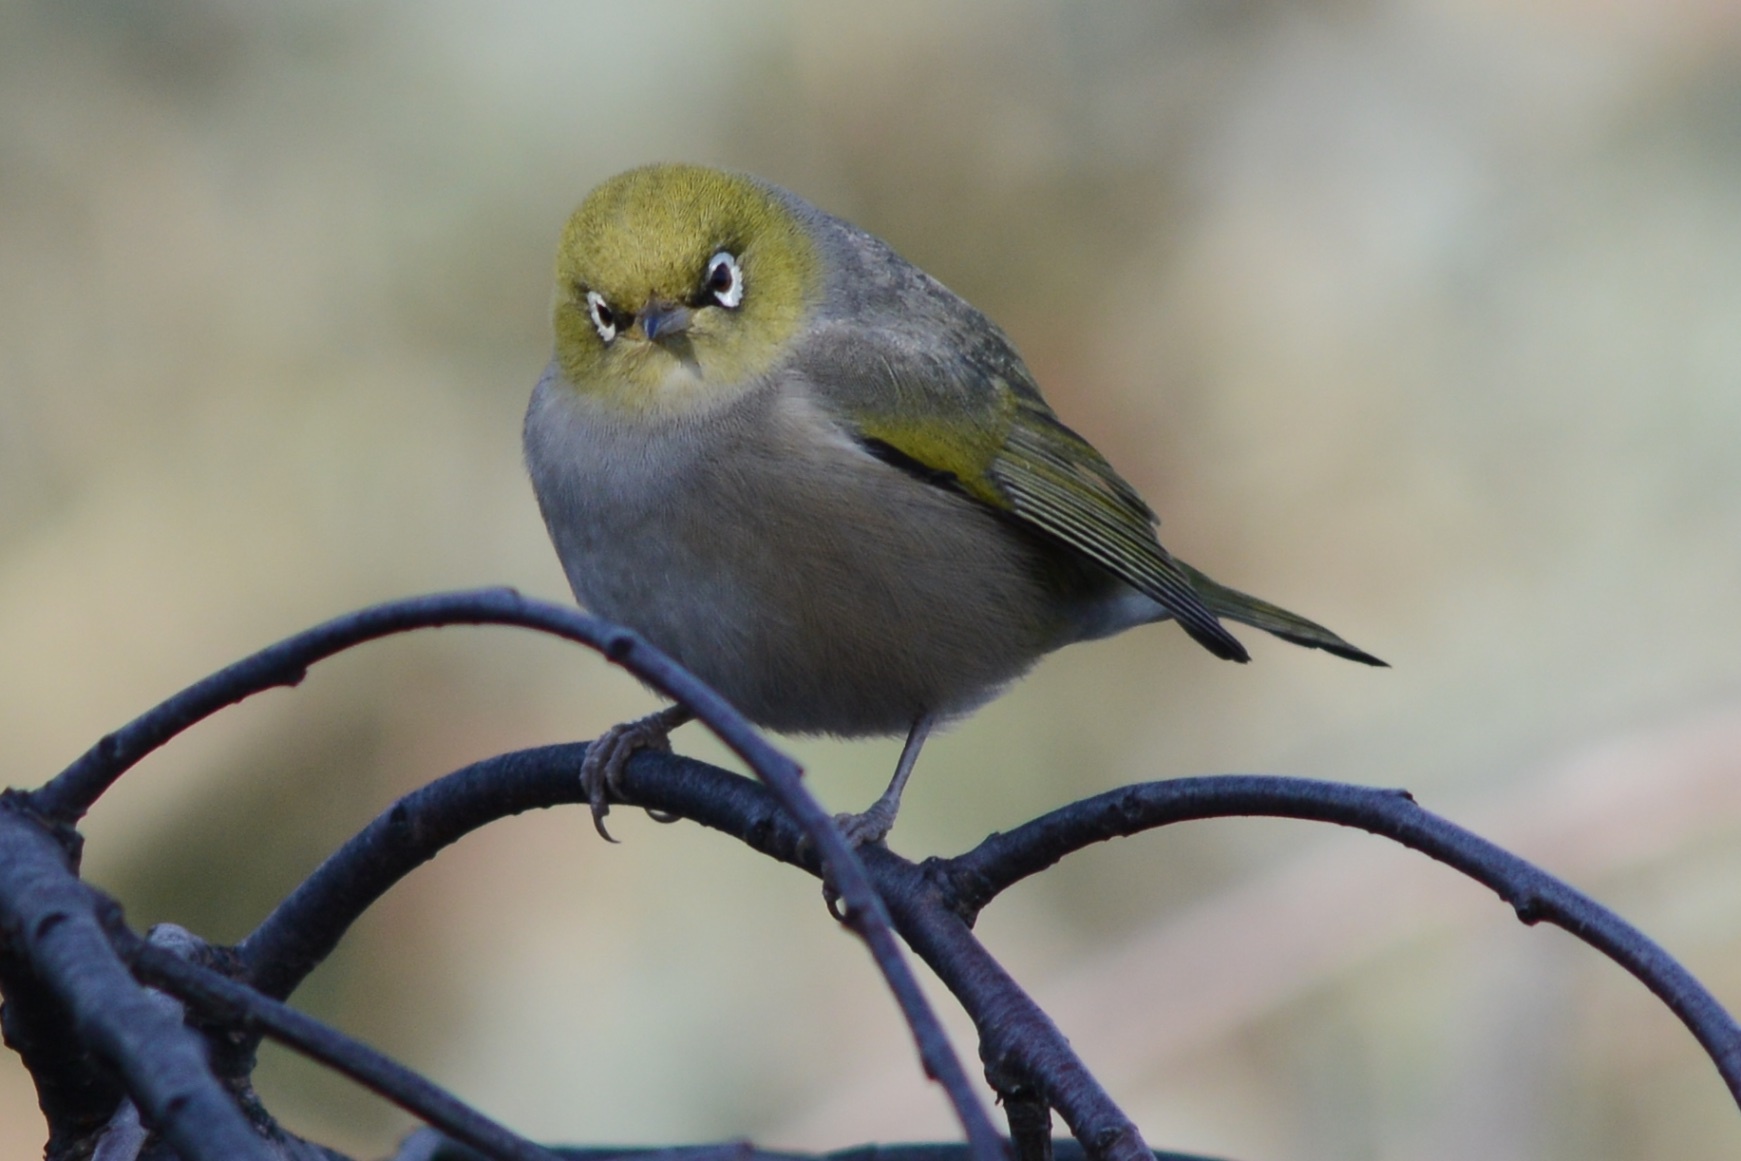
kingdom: Animalia
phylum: Chordata
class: Aves
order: Passeriformes
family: Zosteropidae
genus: Zosterops
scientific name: Zosterops lateralis
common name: Silvereye
